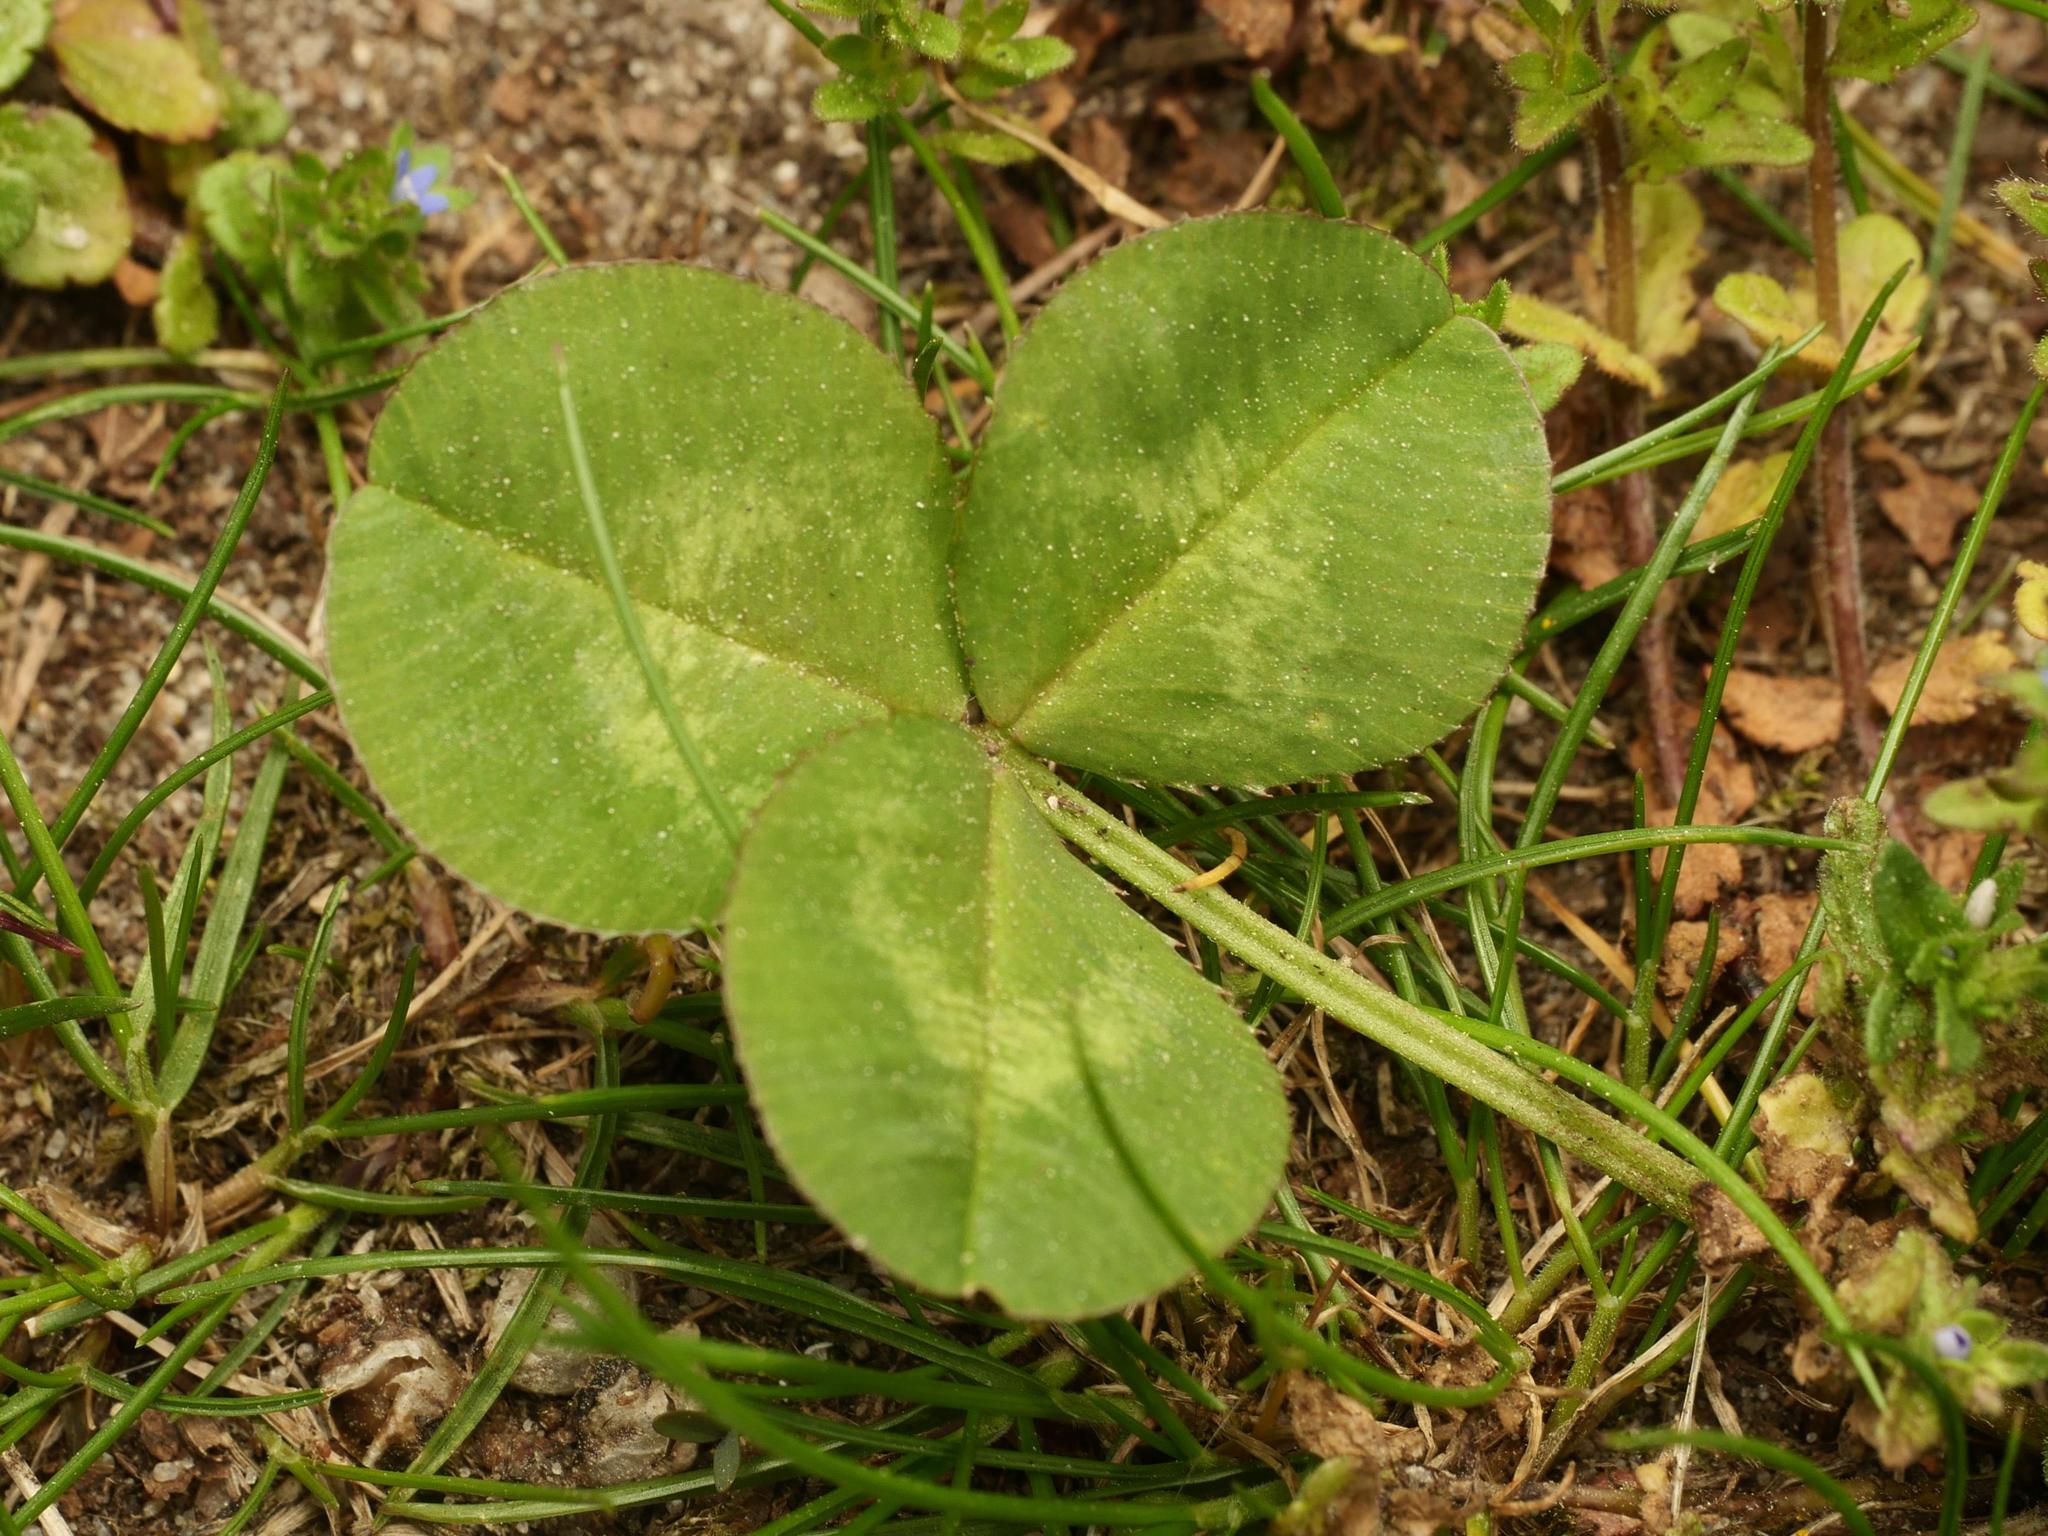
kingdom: Plantae
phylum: Tracheophyta
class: Magnoliopsida
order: Fabales
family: Fabaceae
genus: Trifolium
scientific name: Trifolium repens
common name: White clover
